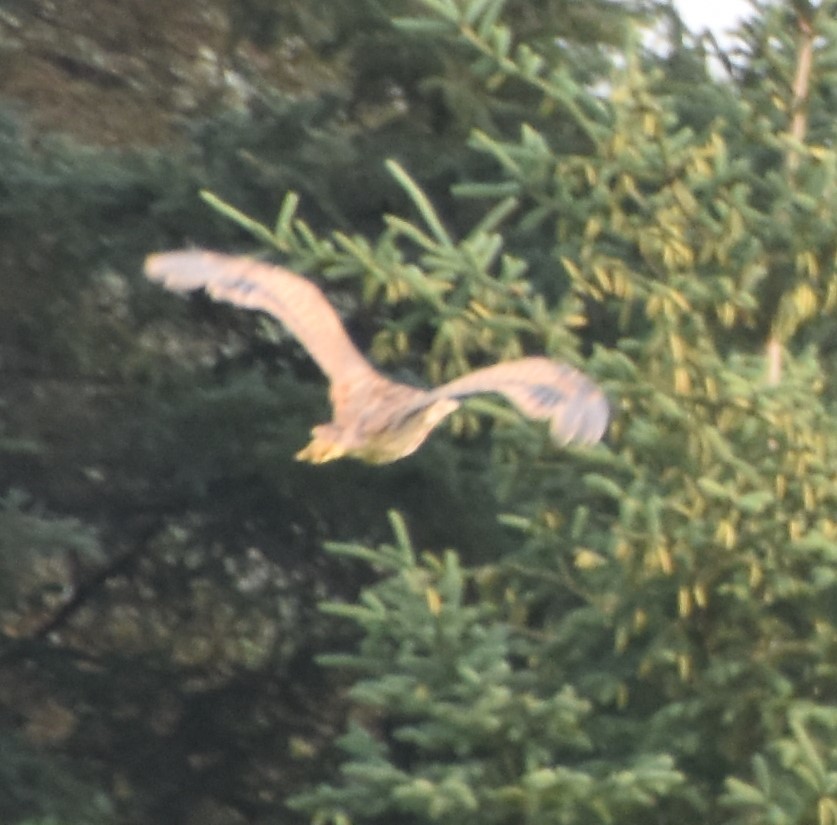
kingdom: Animalia
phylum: Chordata
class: Aves
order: Pelecaniformes
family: Ardeidae
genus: Botaurus
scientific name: Botaurus lentiginosus
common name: American bittern
